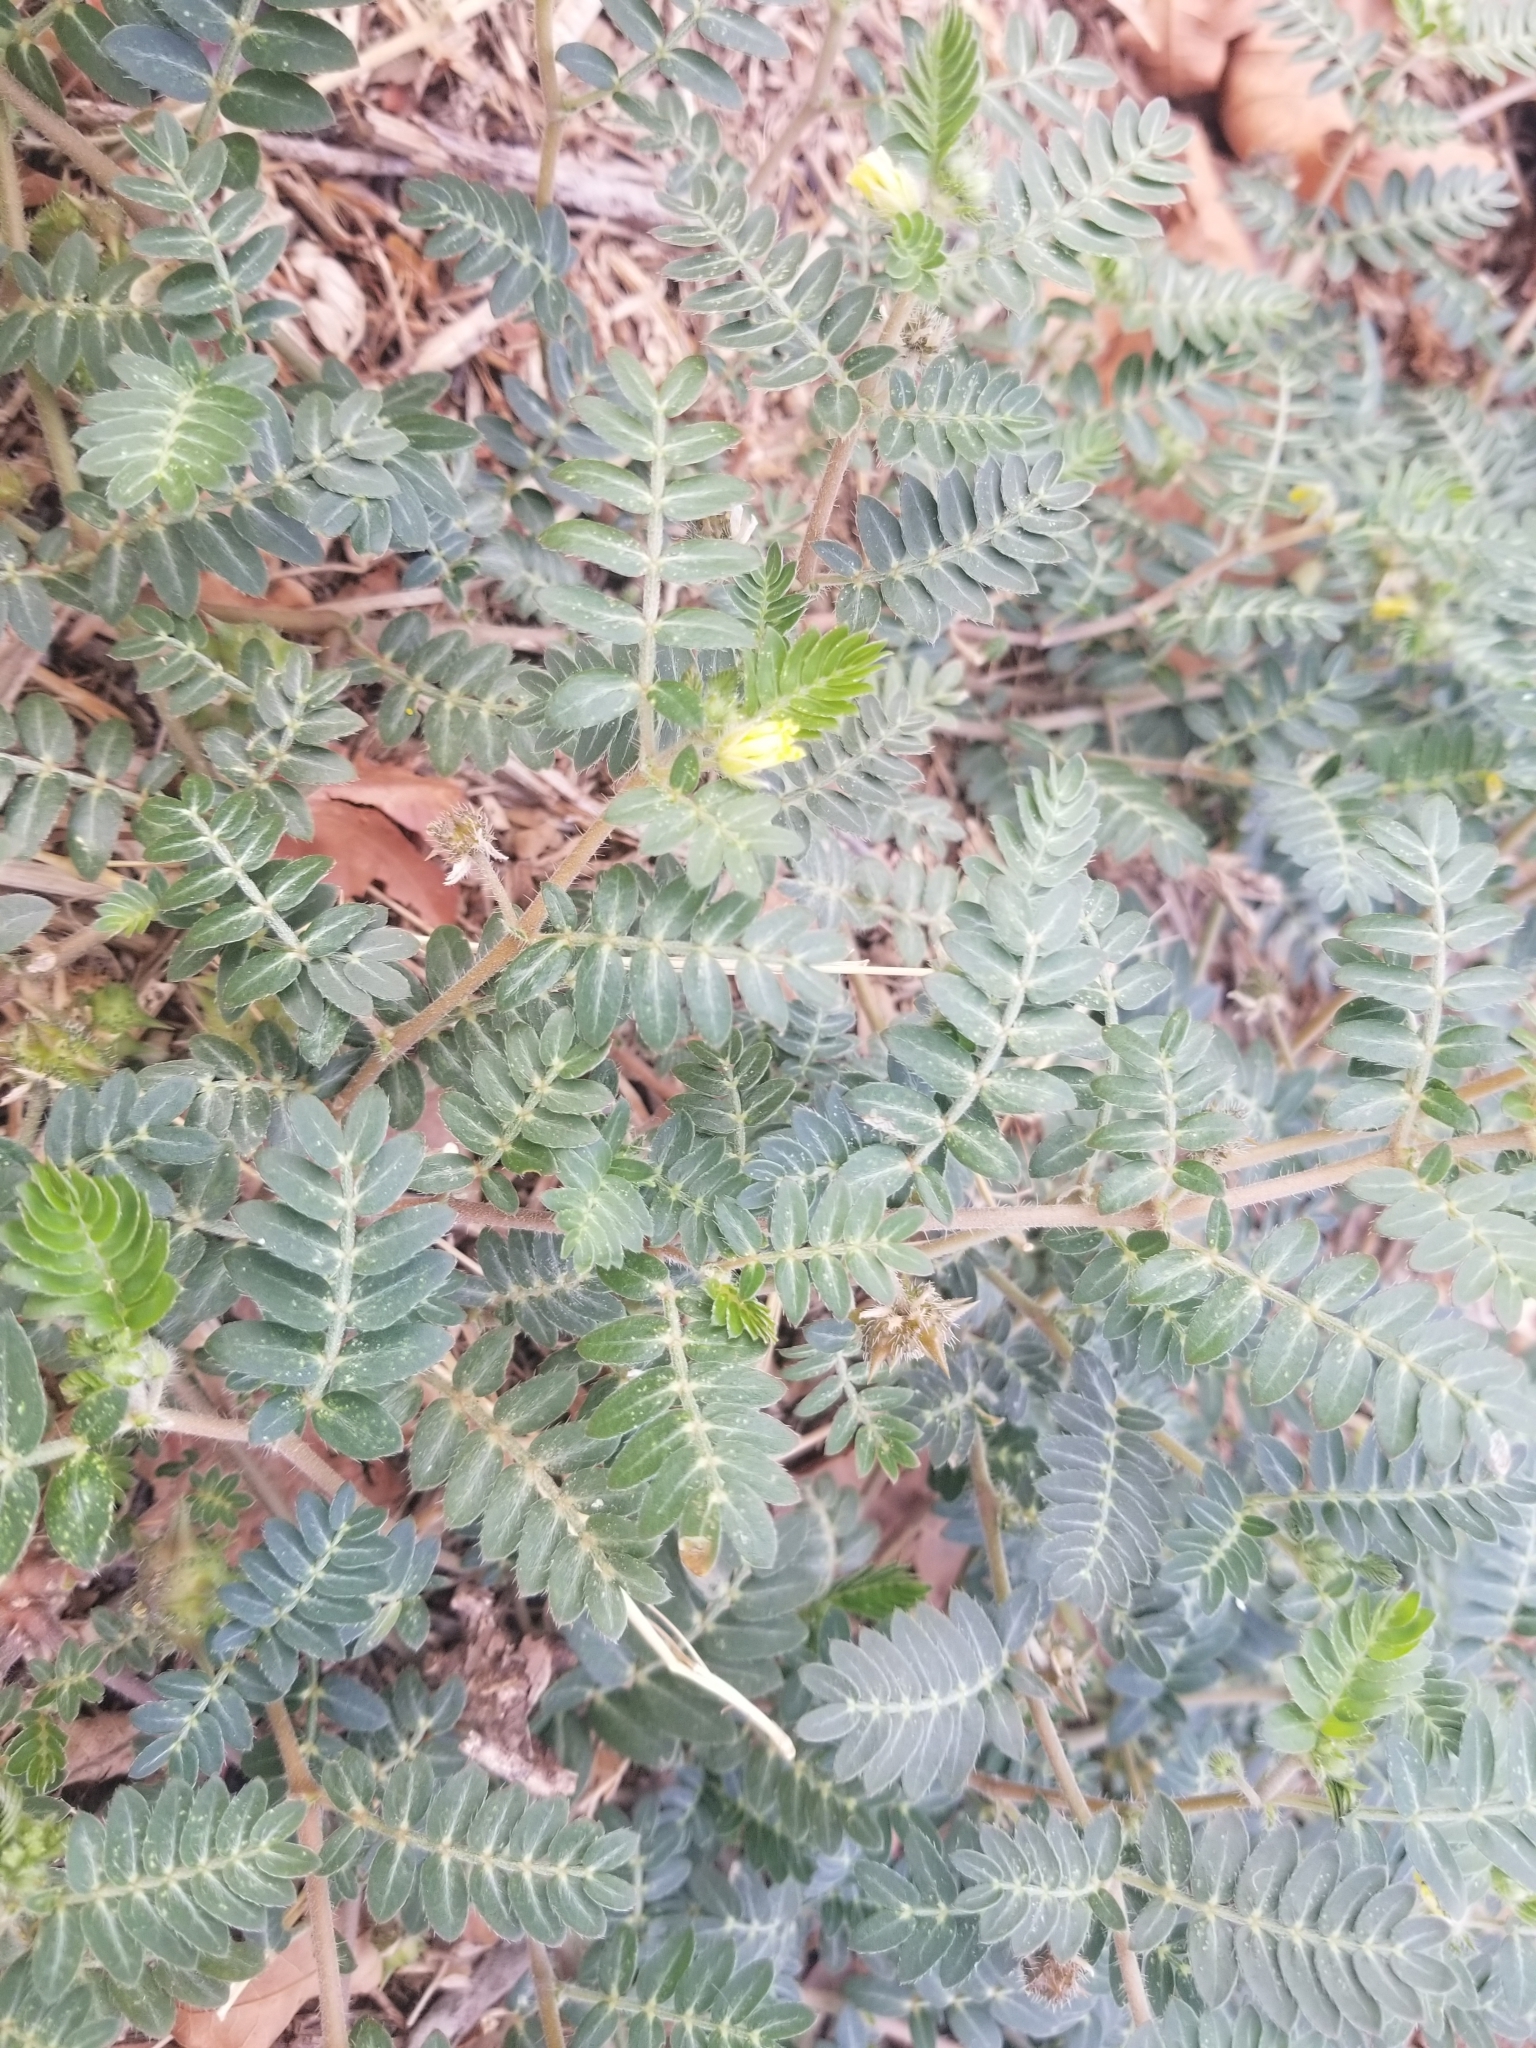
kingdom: Plantae
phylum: Tracheophyta
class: Magnoliopsida
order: Zygophyllales
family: Zygophyllaceae
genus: Tribulus
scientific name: Tribulus terrestris
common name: Puncturevine
